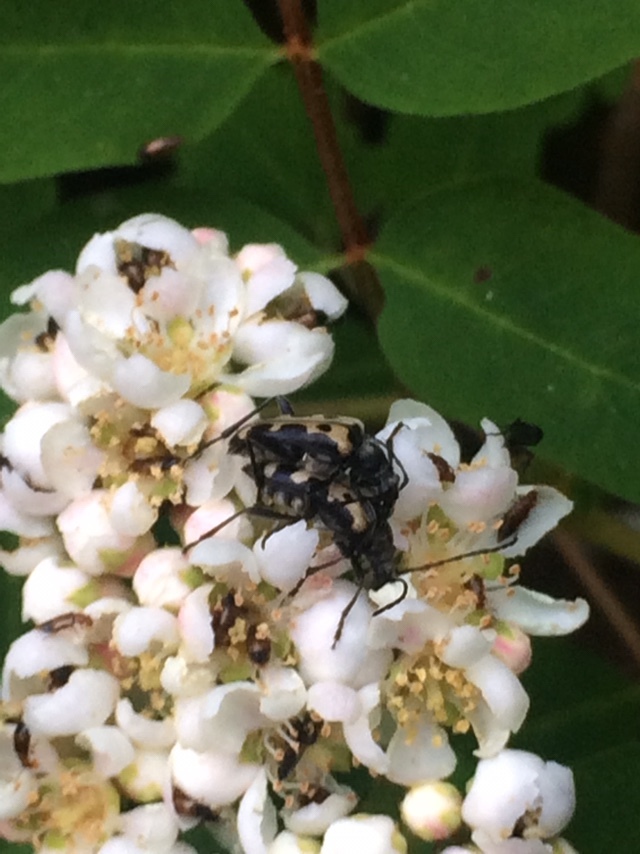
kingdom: Animalia
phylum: Arthropoda
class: Insecta
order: Coleoptera
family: Cerambycidae
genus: Evodinus
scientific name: Evodinus monticola
